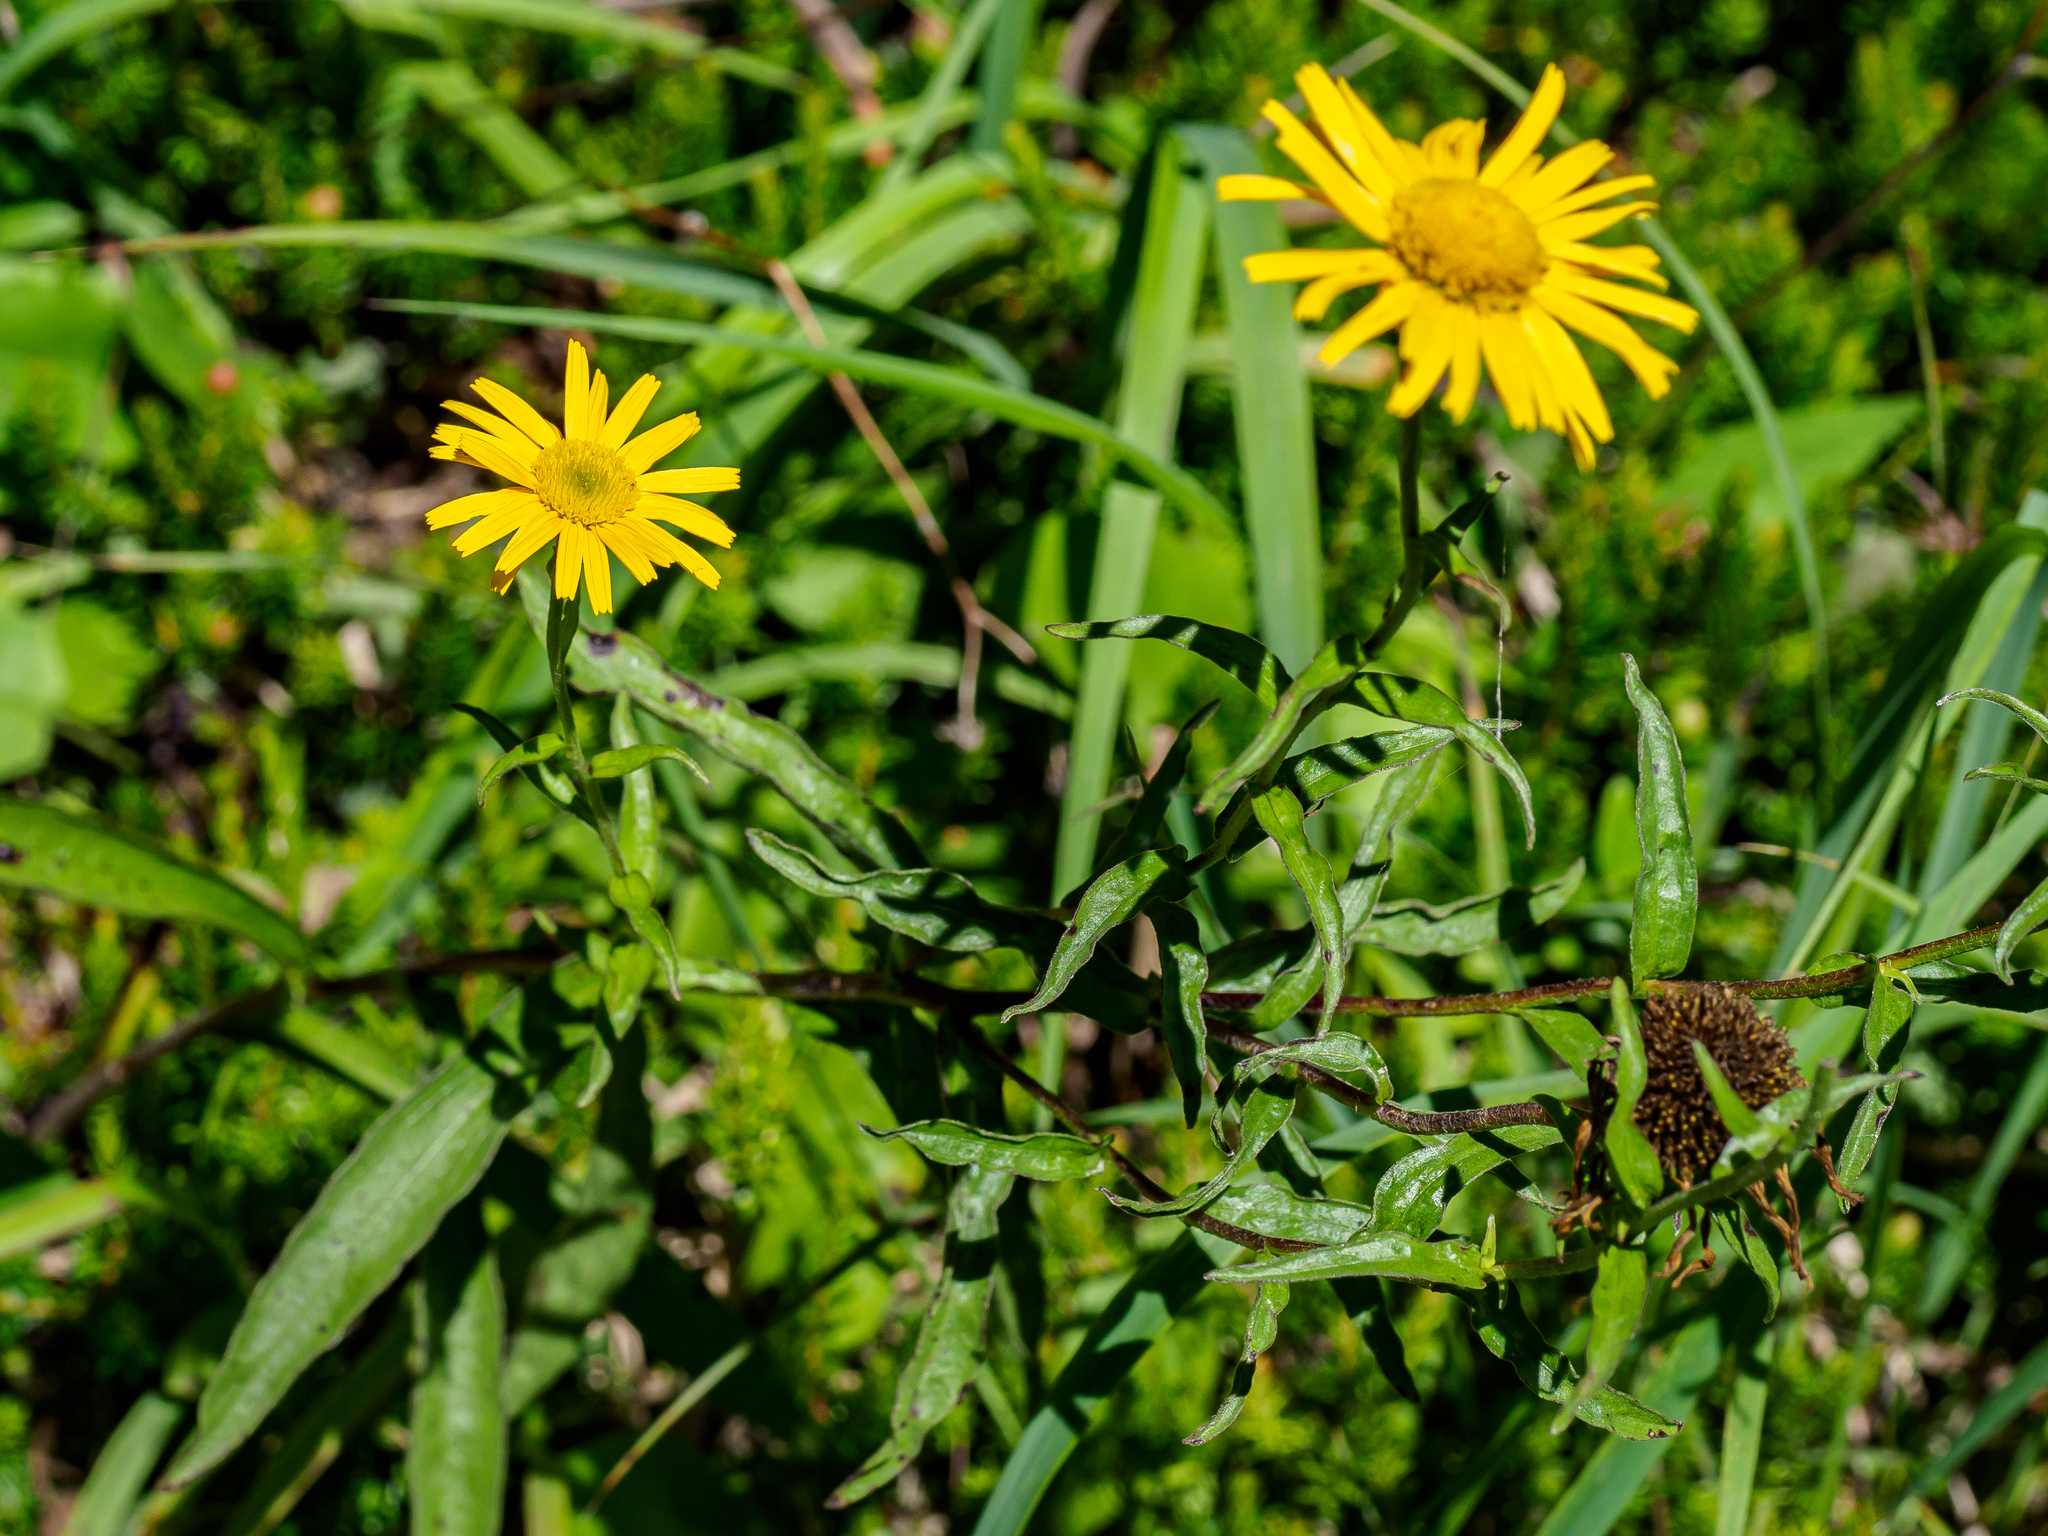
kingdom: Plantae
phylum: Tracheophyta
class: Magnoliopsida
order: Asterales
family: Asteraceae
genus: Buphthalmum
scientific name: Buphthalmum salicifolium
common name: Willow-leaved yellow-oxeye
